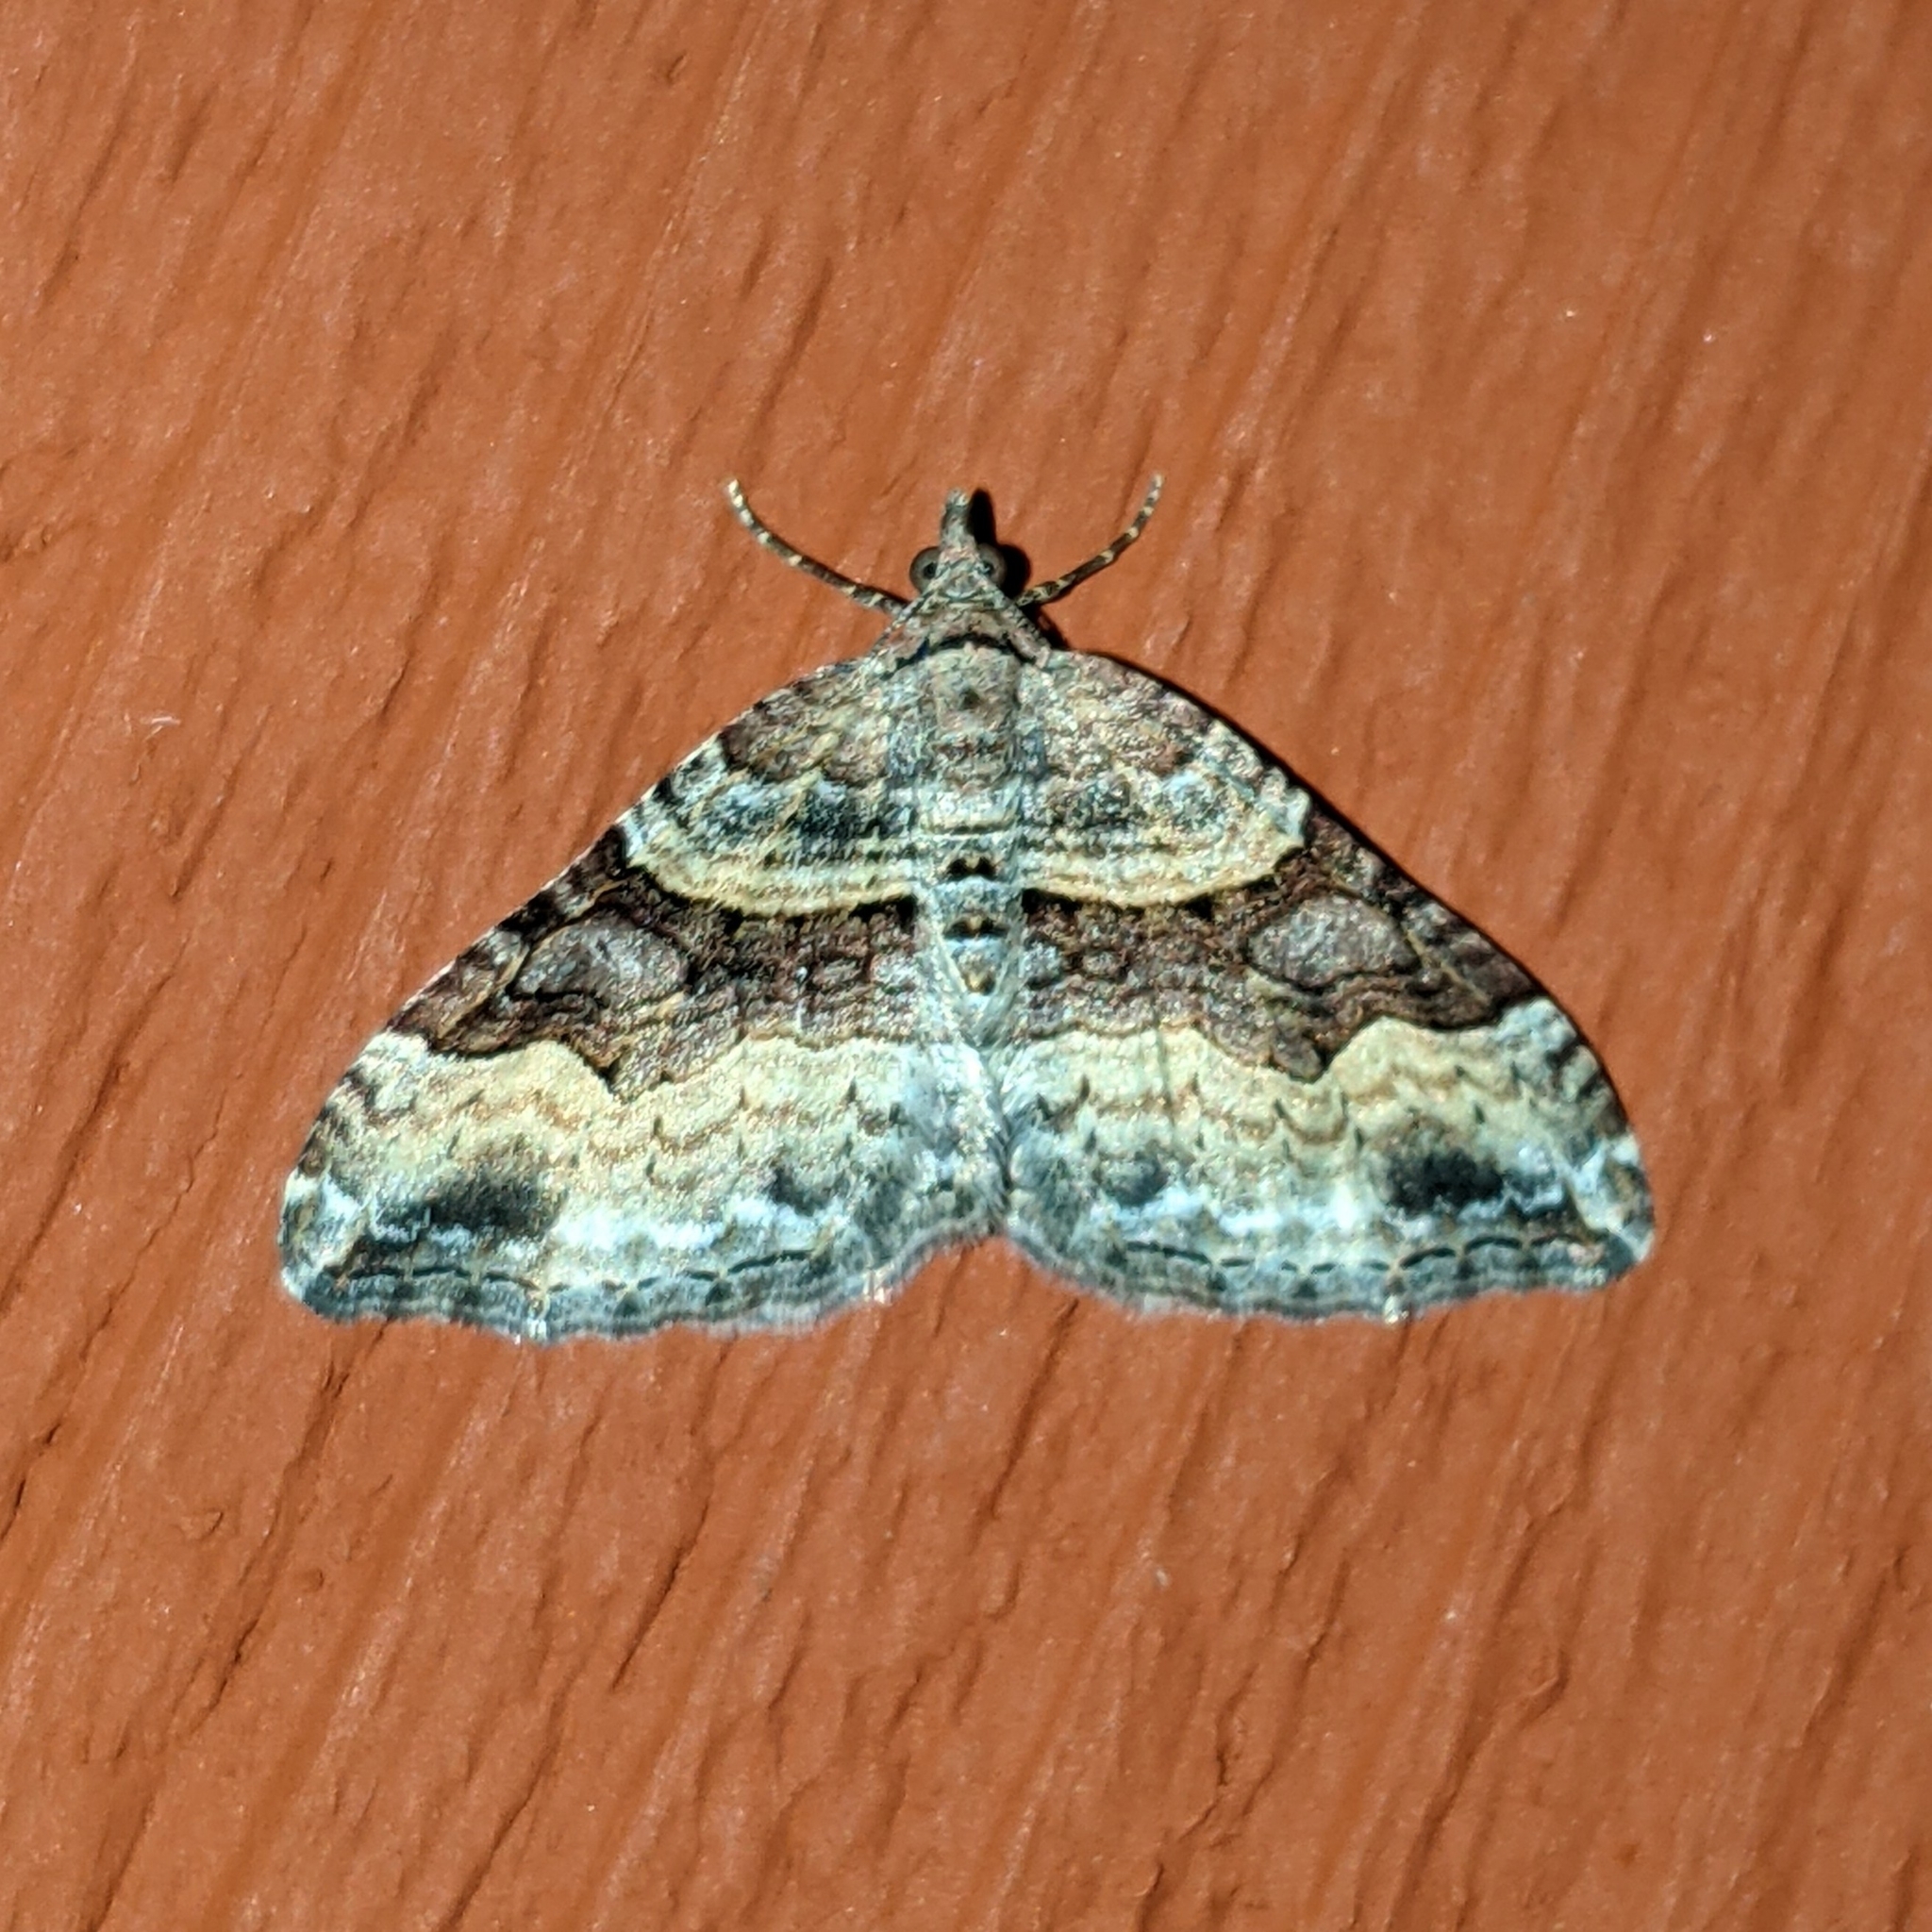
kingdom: Animalia
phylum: Arthropoda
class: Insecta
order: Lepidoptera
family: Geometridae
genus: Xanthorhoe
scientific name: Xanthorhoe defensaria
